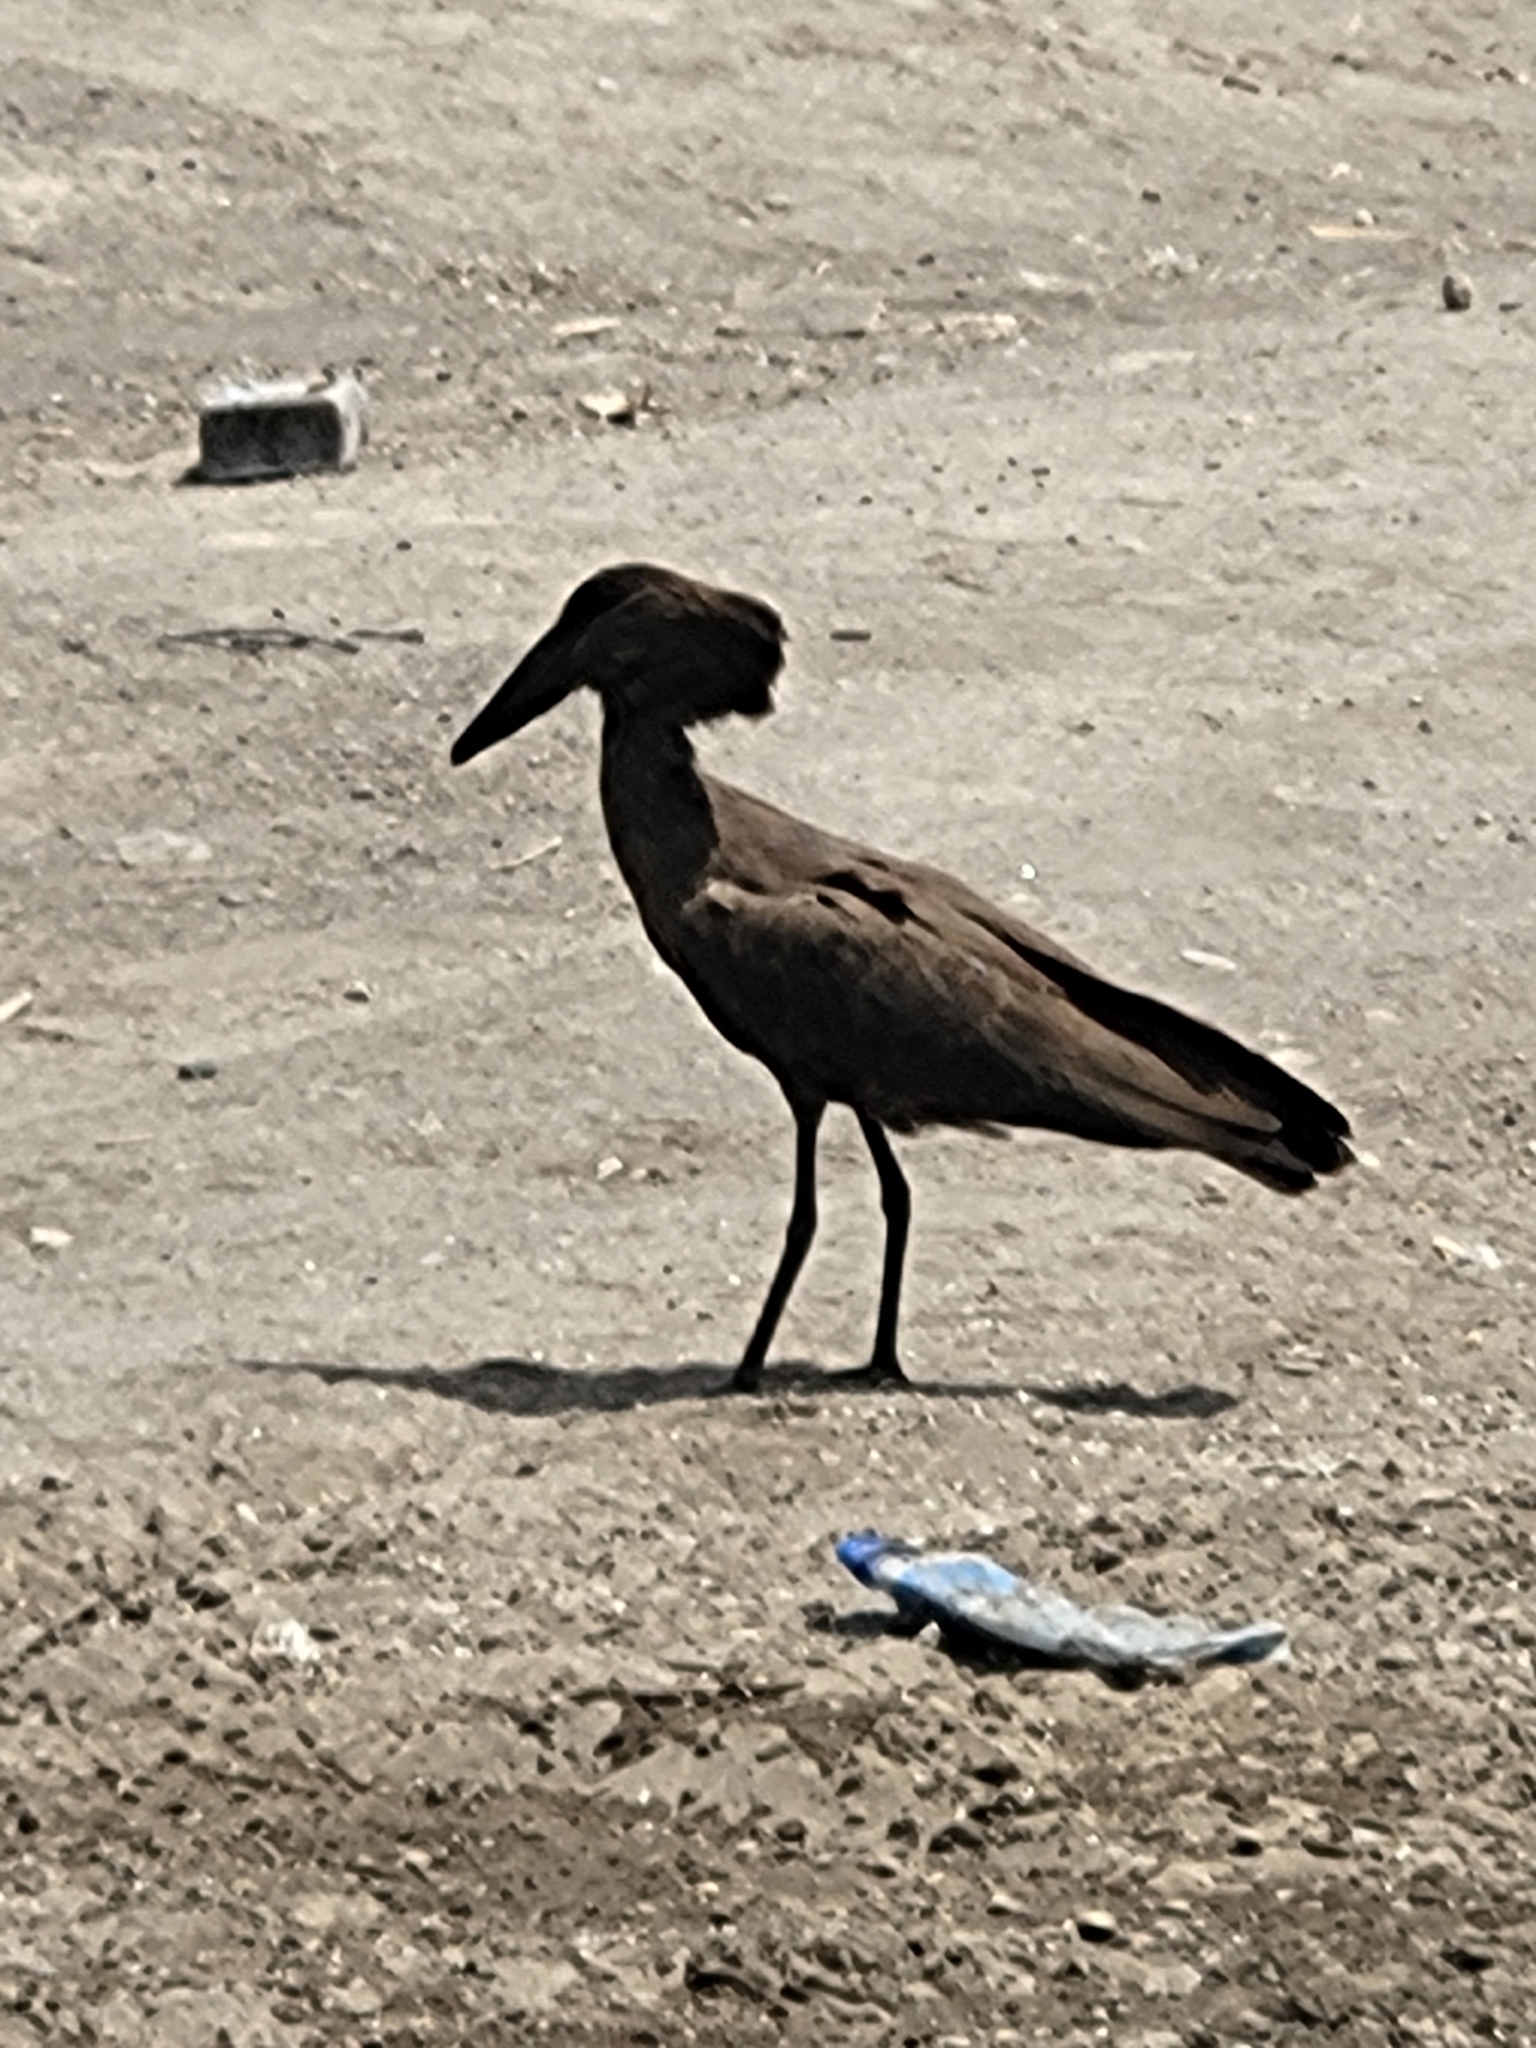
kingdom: Animalia
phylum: Chordata
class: Aves
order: Pelecaniformes
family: Scopidae
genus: Scopus
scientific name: Scopus umbretta
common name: Hamerkop
